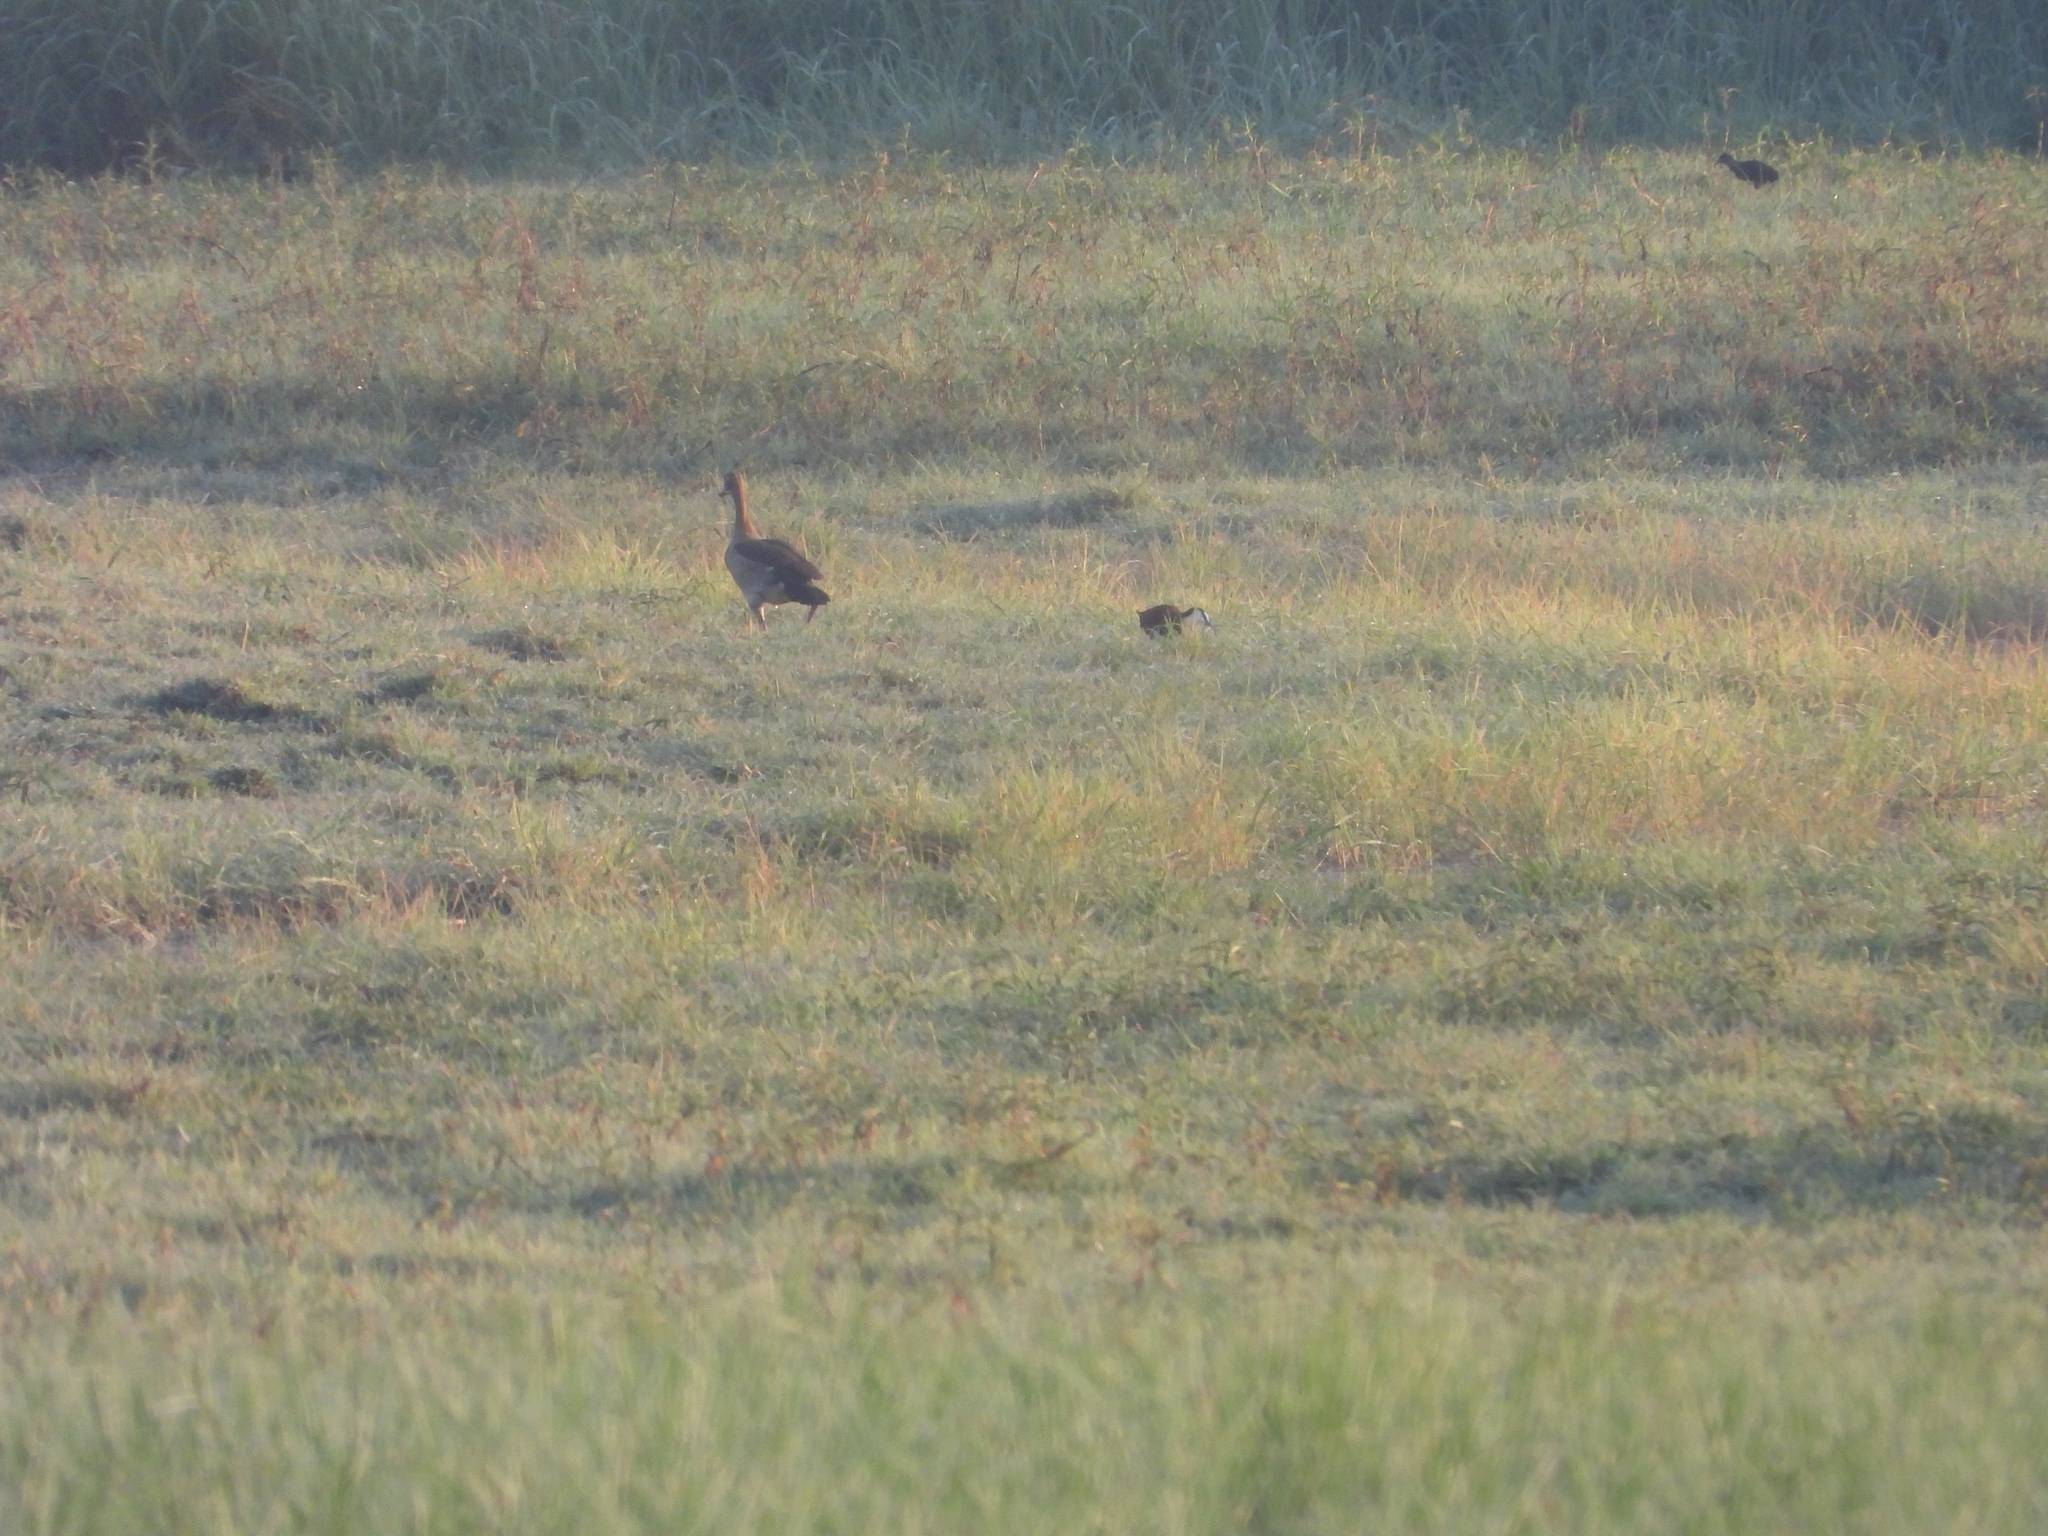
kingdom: Animalia
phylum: Chordata
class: Aves
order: Charadriiformes
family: Jacanidae
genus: Actophilornis
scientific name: Actophilornis africanus
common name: African jacana
